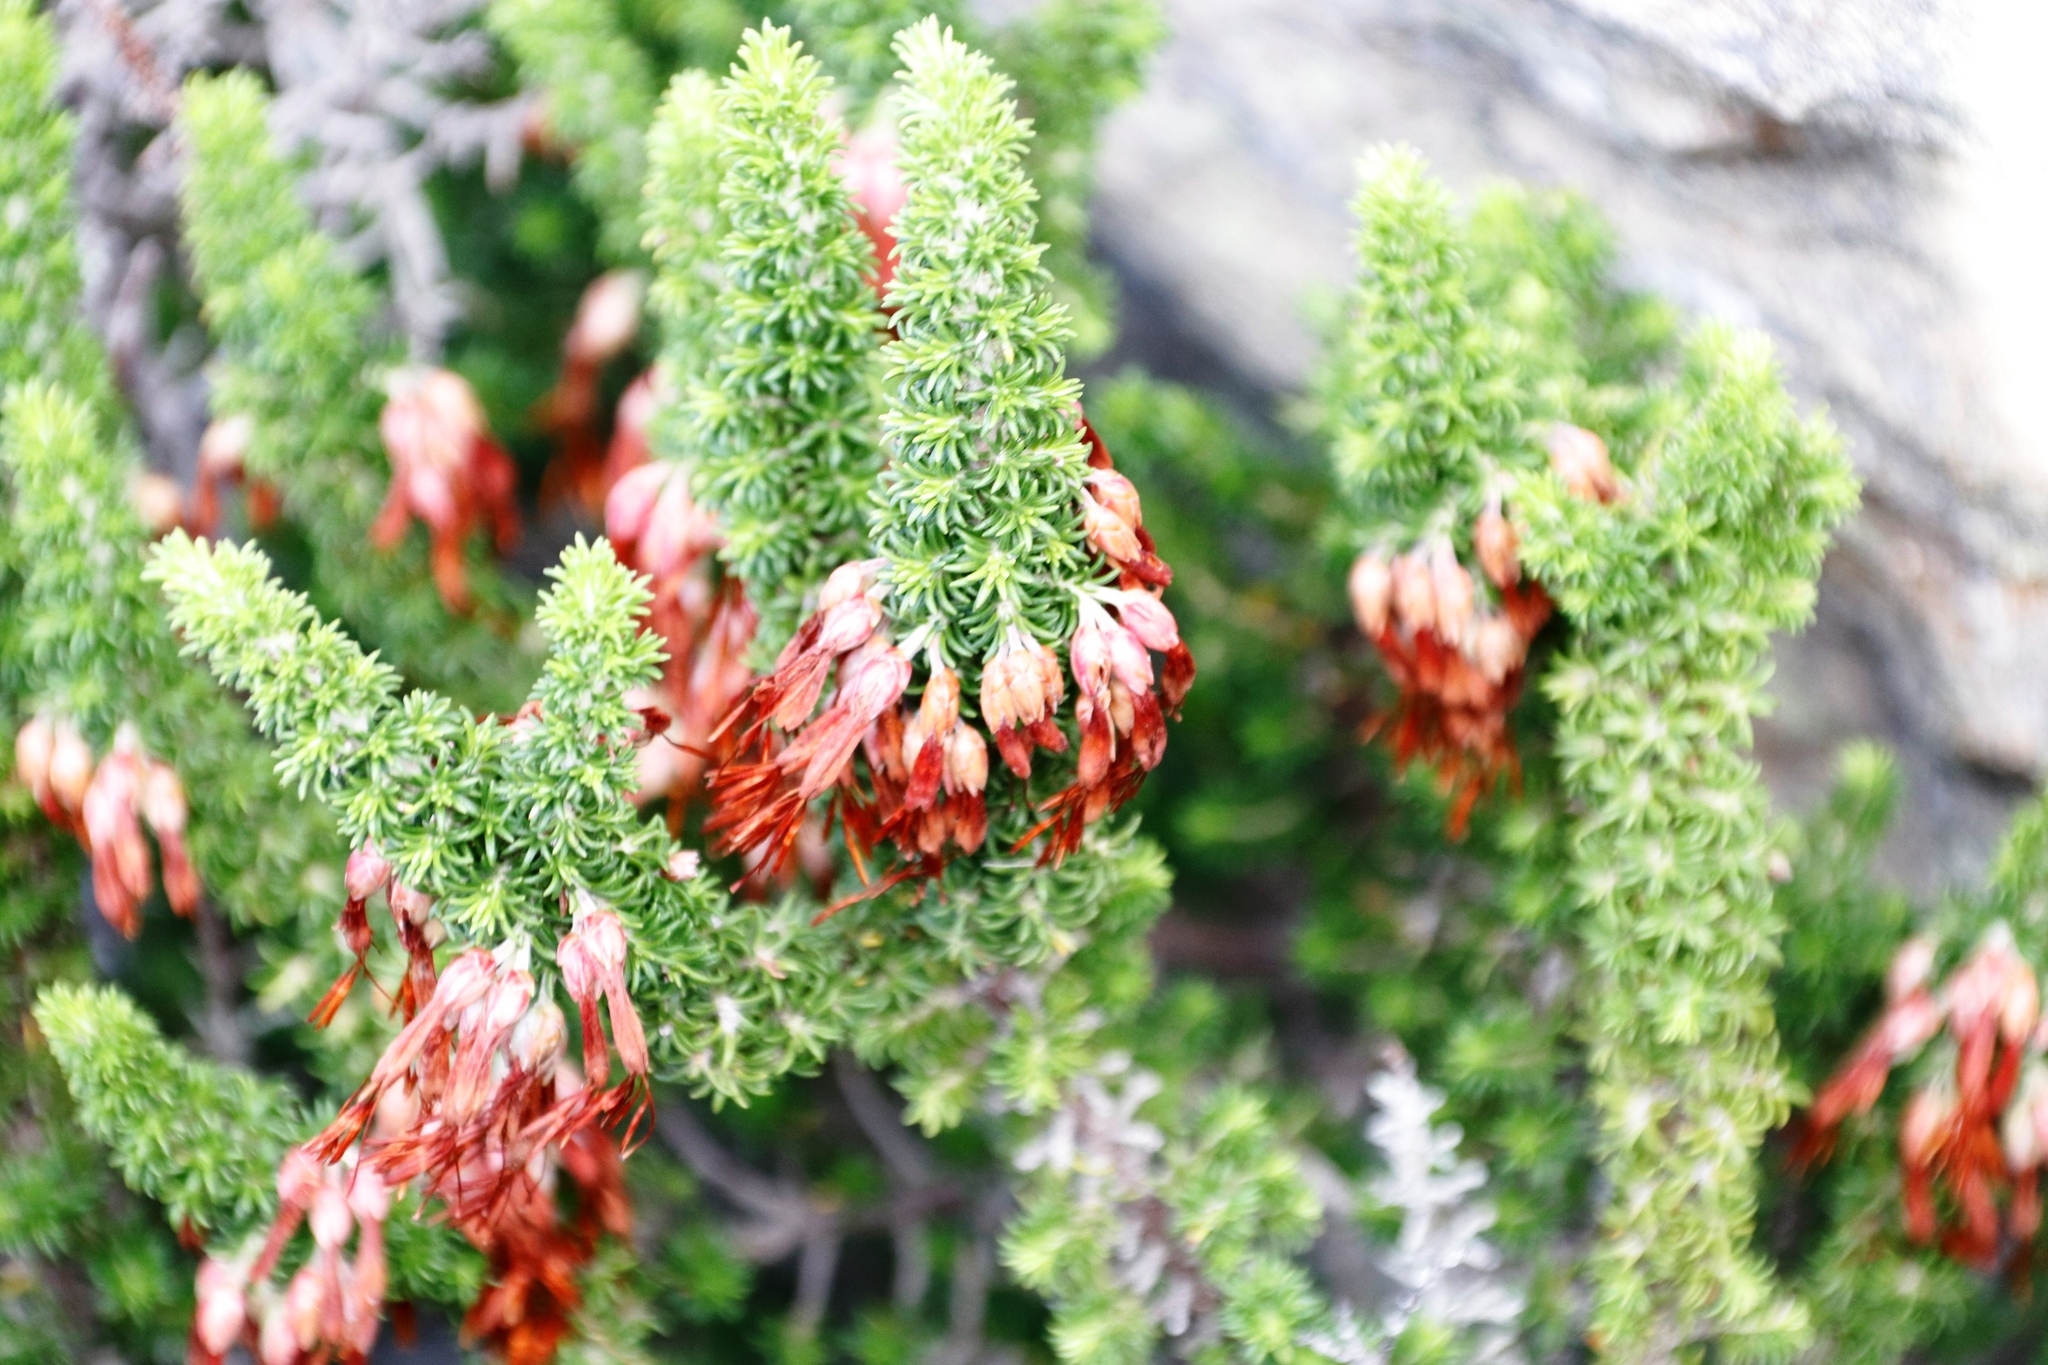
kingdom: Plantae
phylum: Tracheophyta
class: Magnoliopsida
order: Ericales
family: Ericaceae
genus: Erica
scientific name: Erica coccinea
